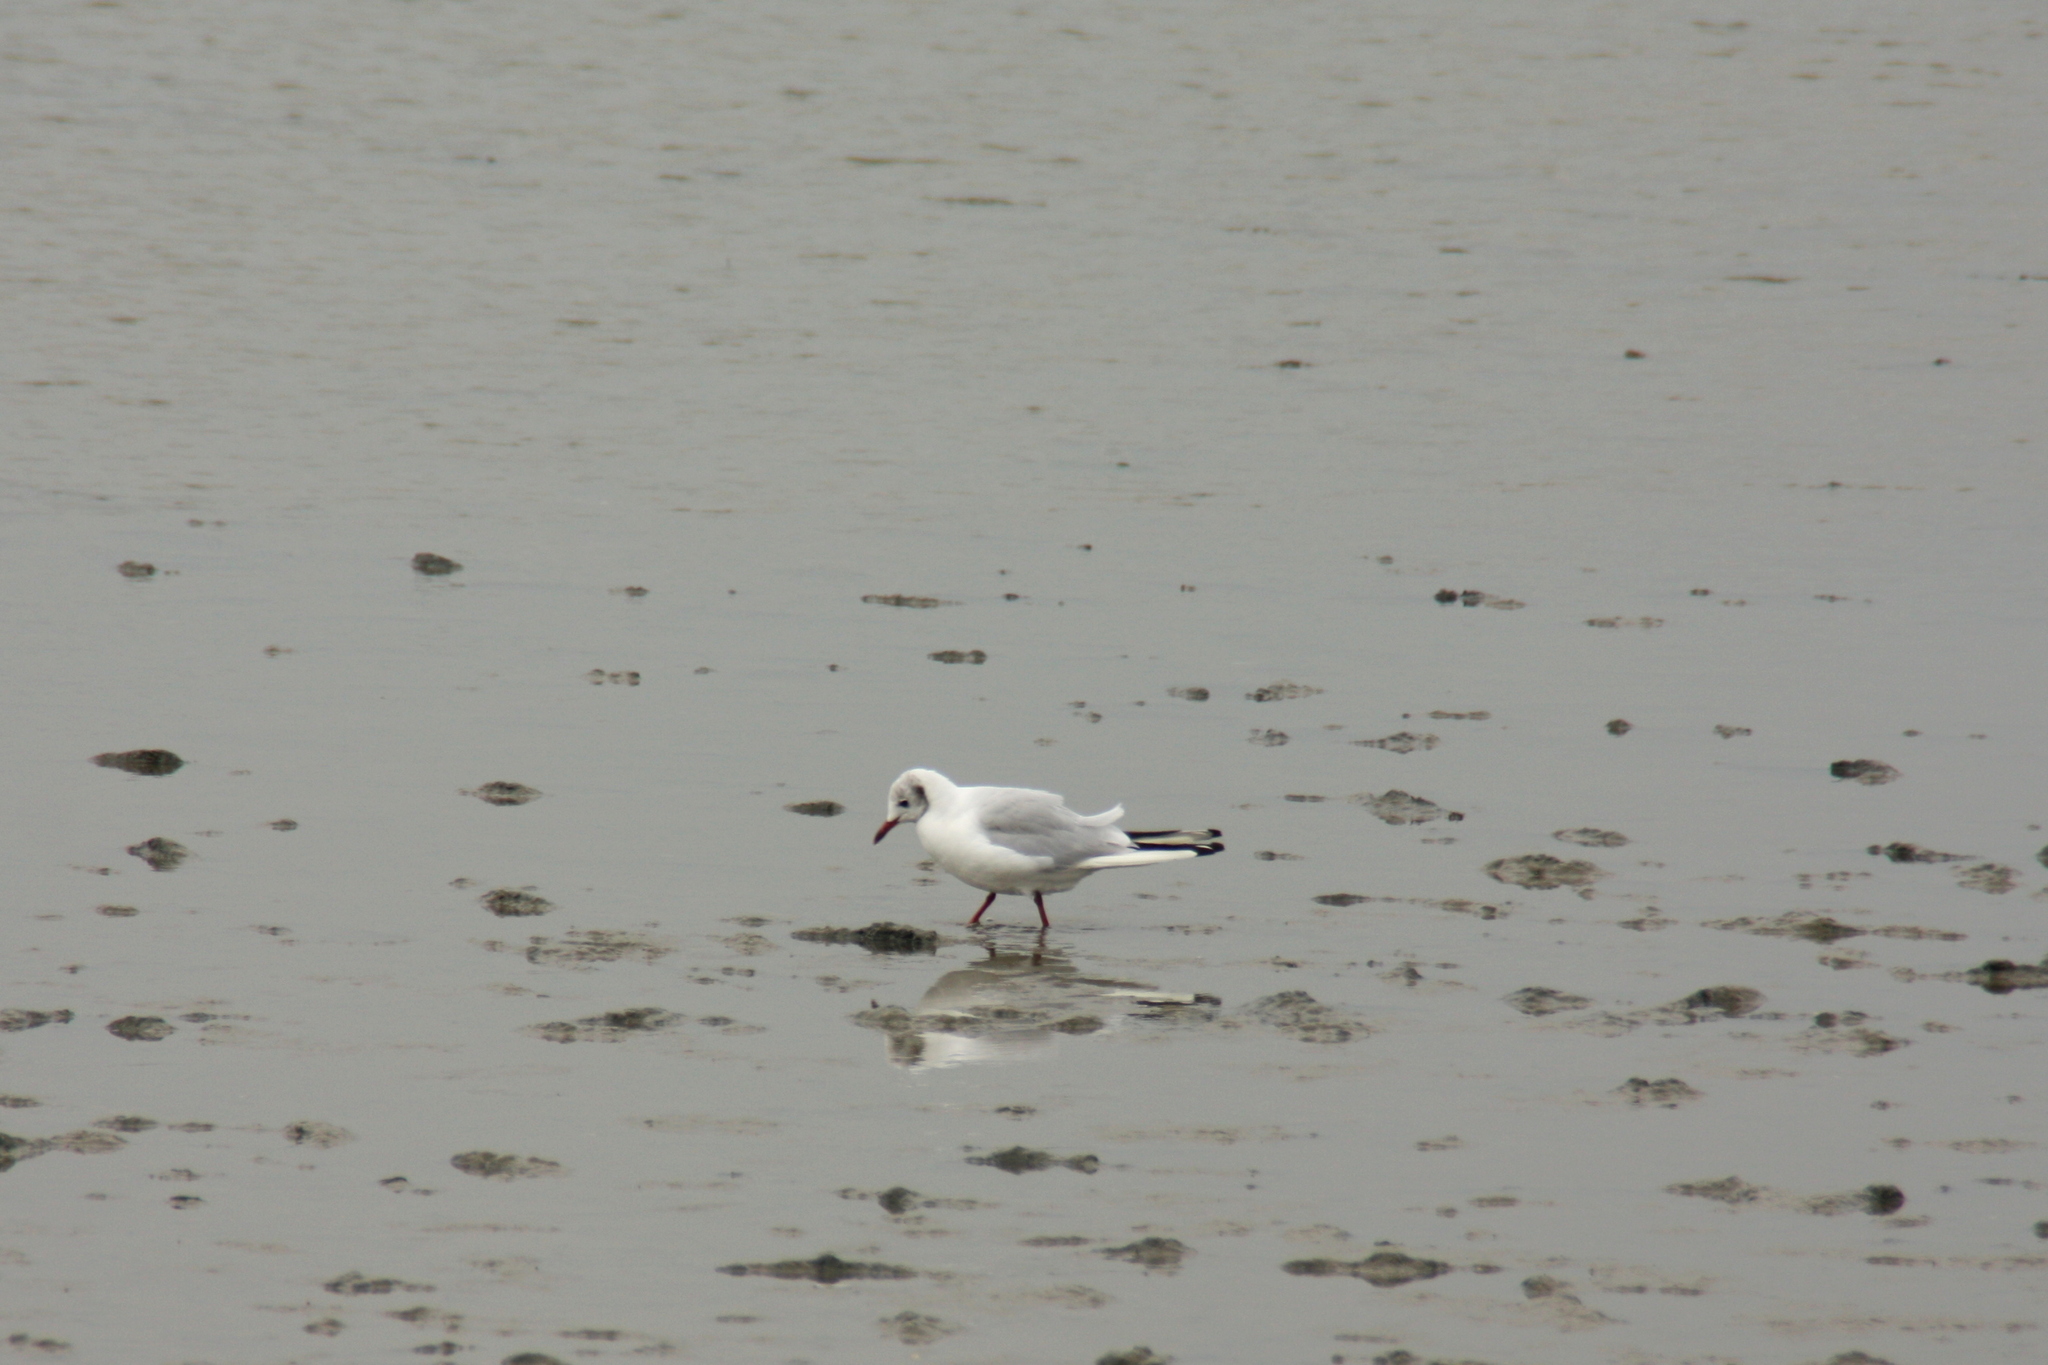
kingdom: Animalia
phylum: Chordata
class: Aves
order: Charadriiformes
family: Laridae
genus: Chroicocephalus
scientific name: Chroicocephalus ridibundus
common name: Black-headed gull
